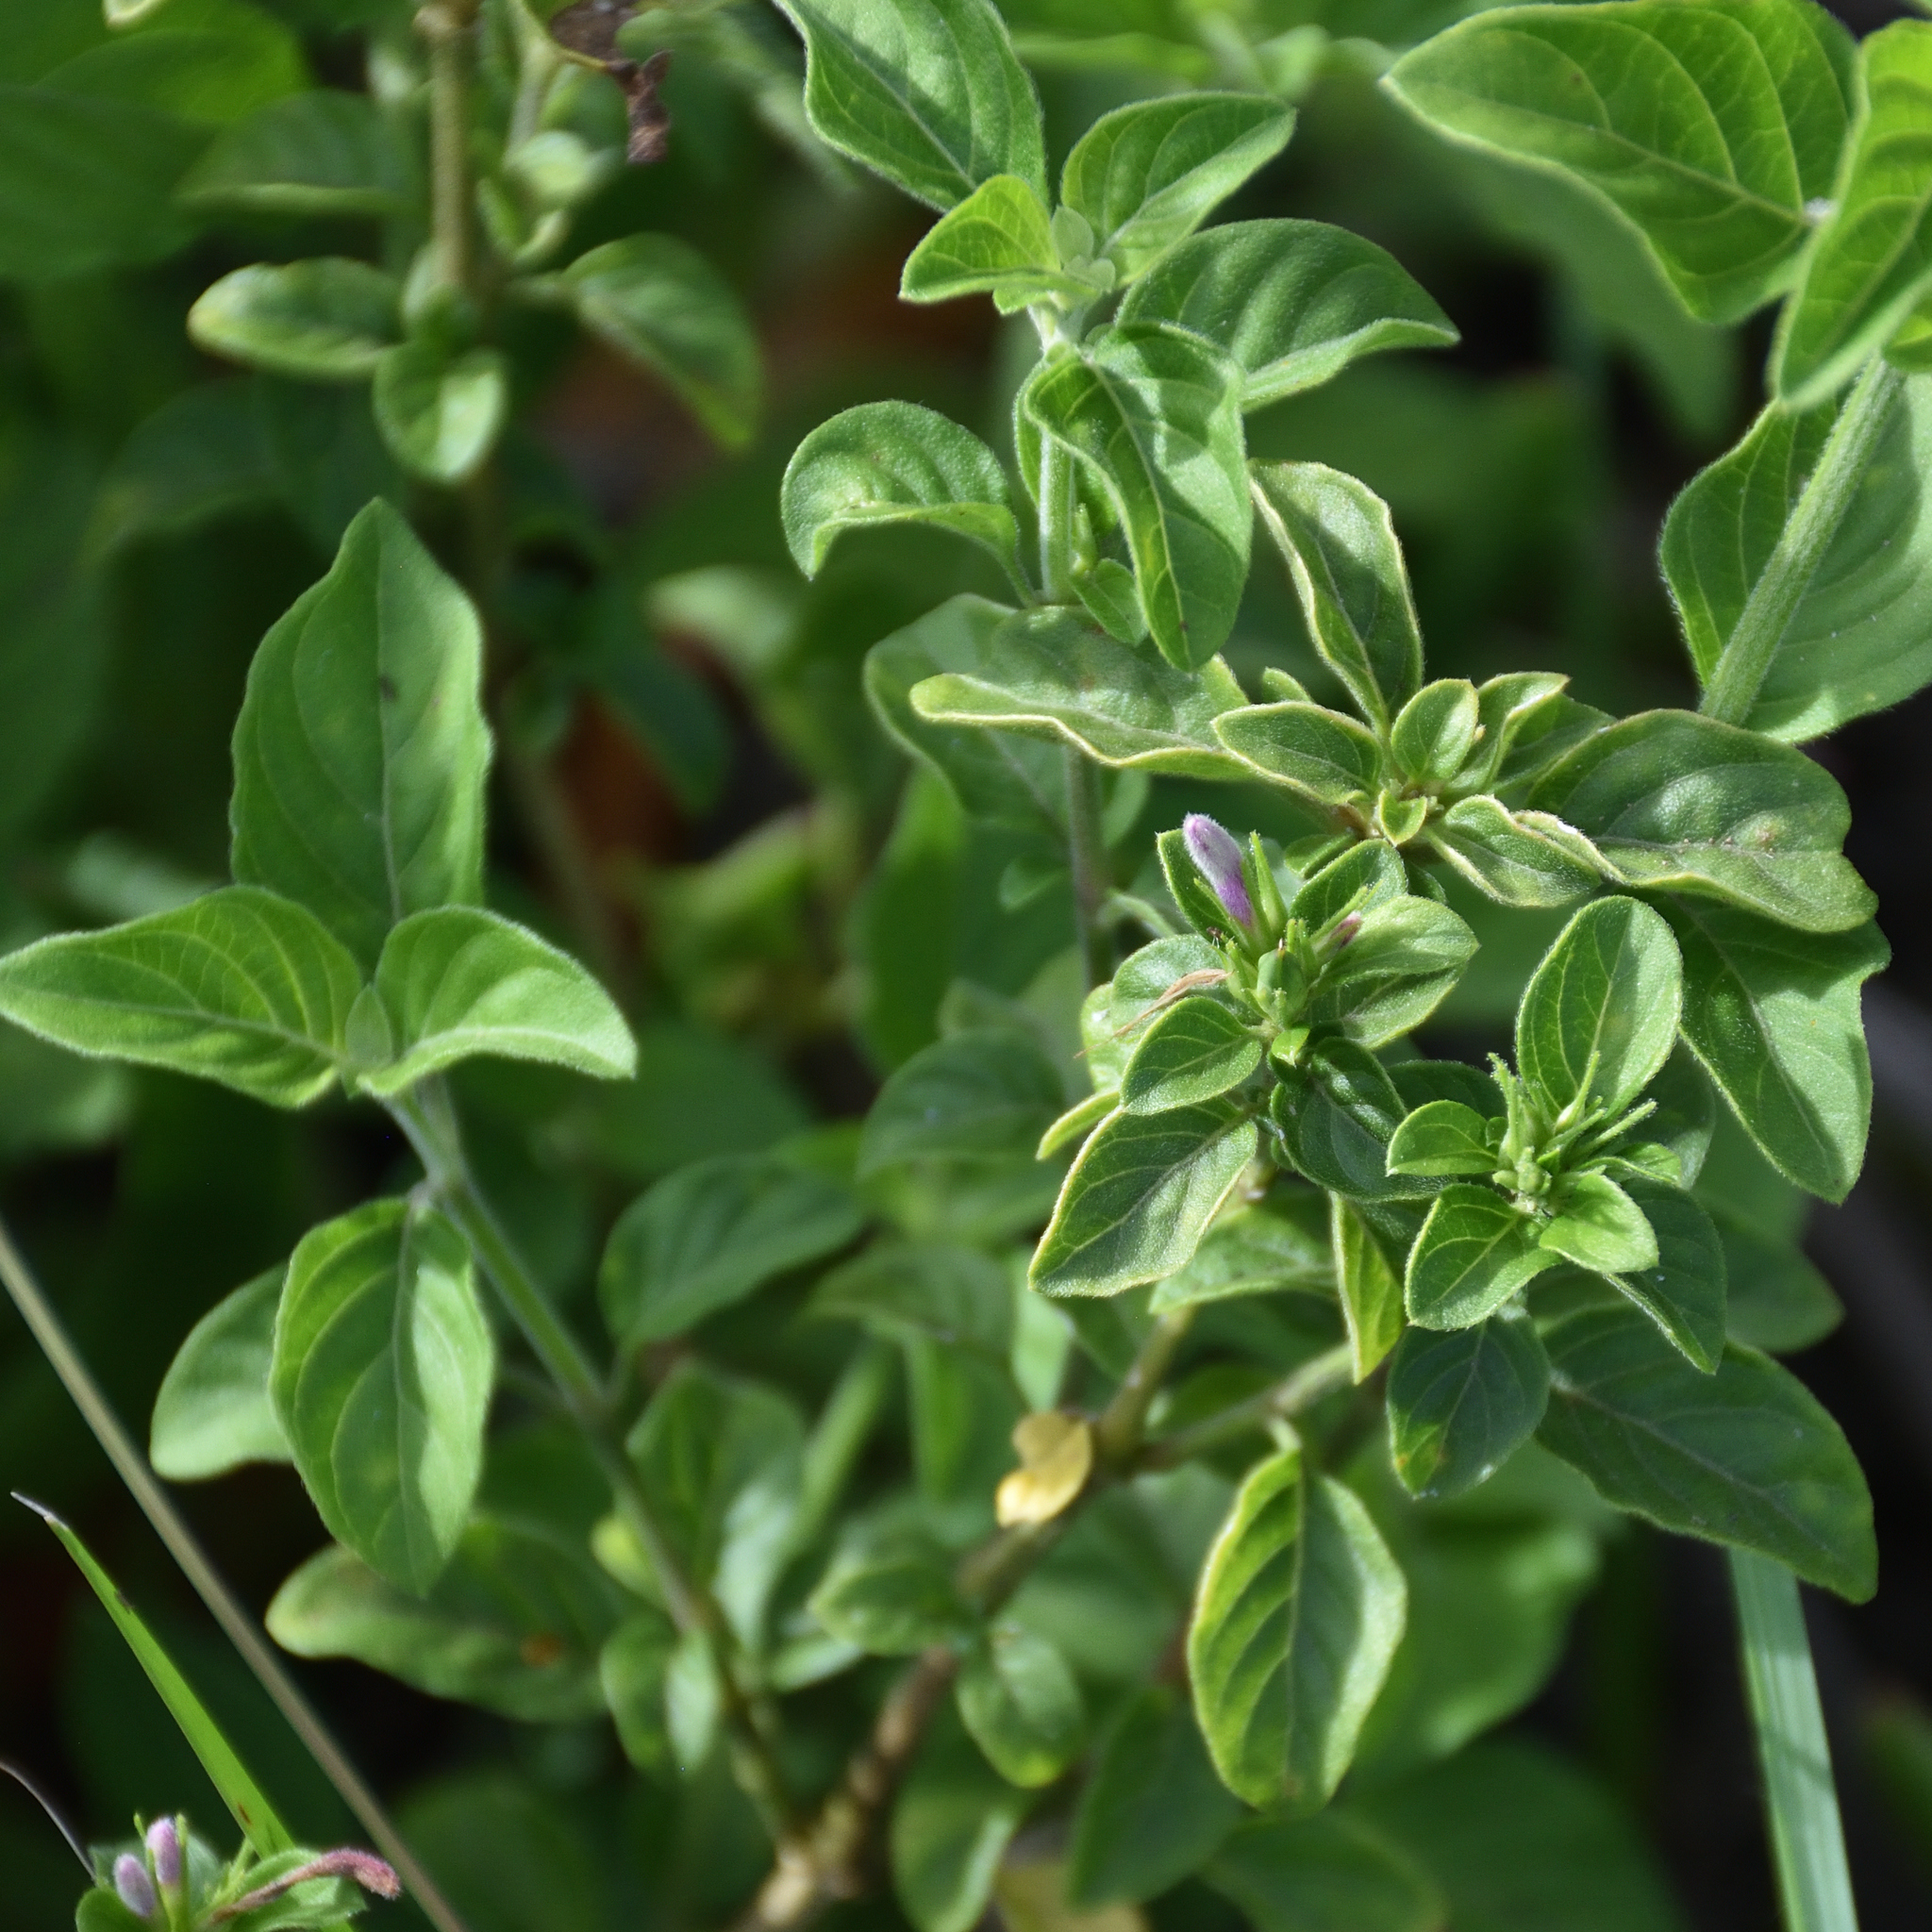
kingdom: Plantae
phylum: Tracheophyta
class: Magnoliopsida
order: Lamiales
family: Acanthaceae
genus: Hypoestes
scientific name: Hypoestes aristata
